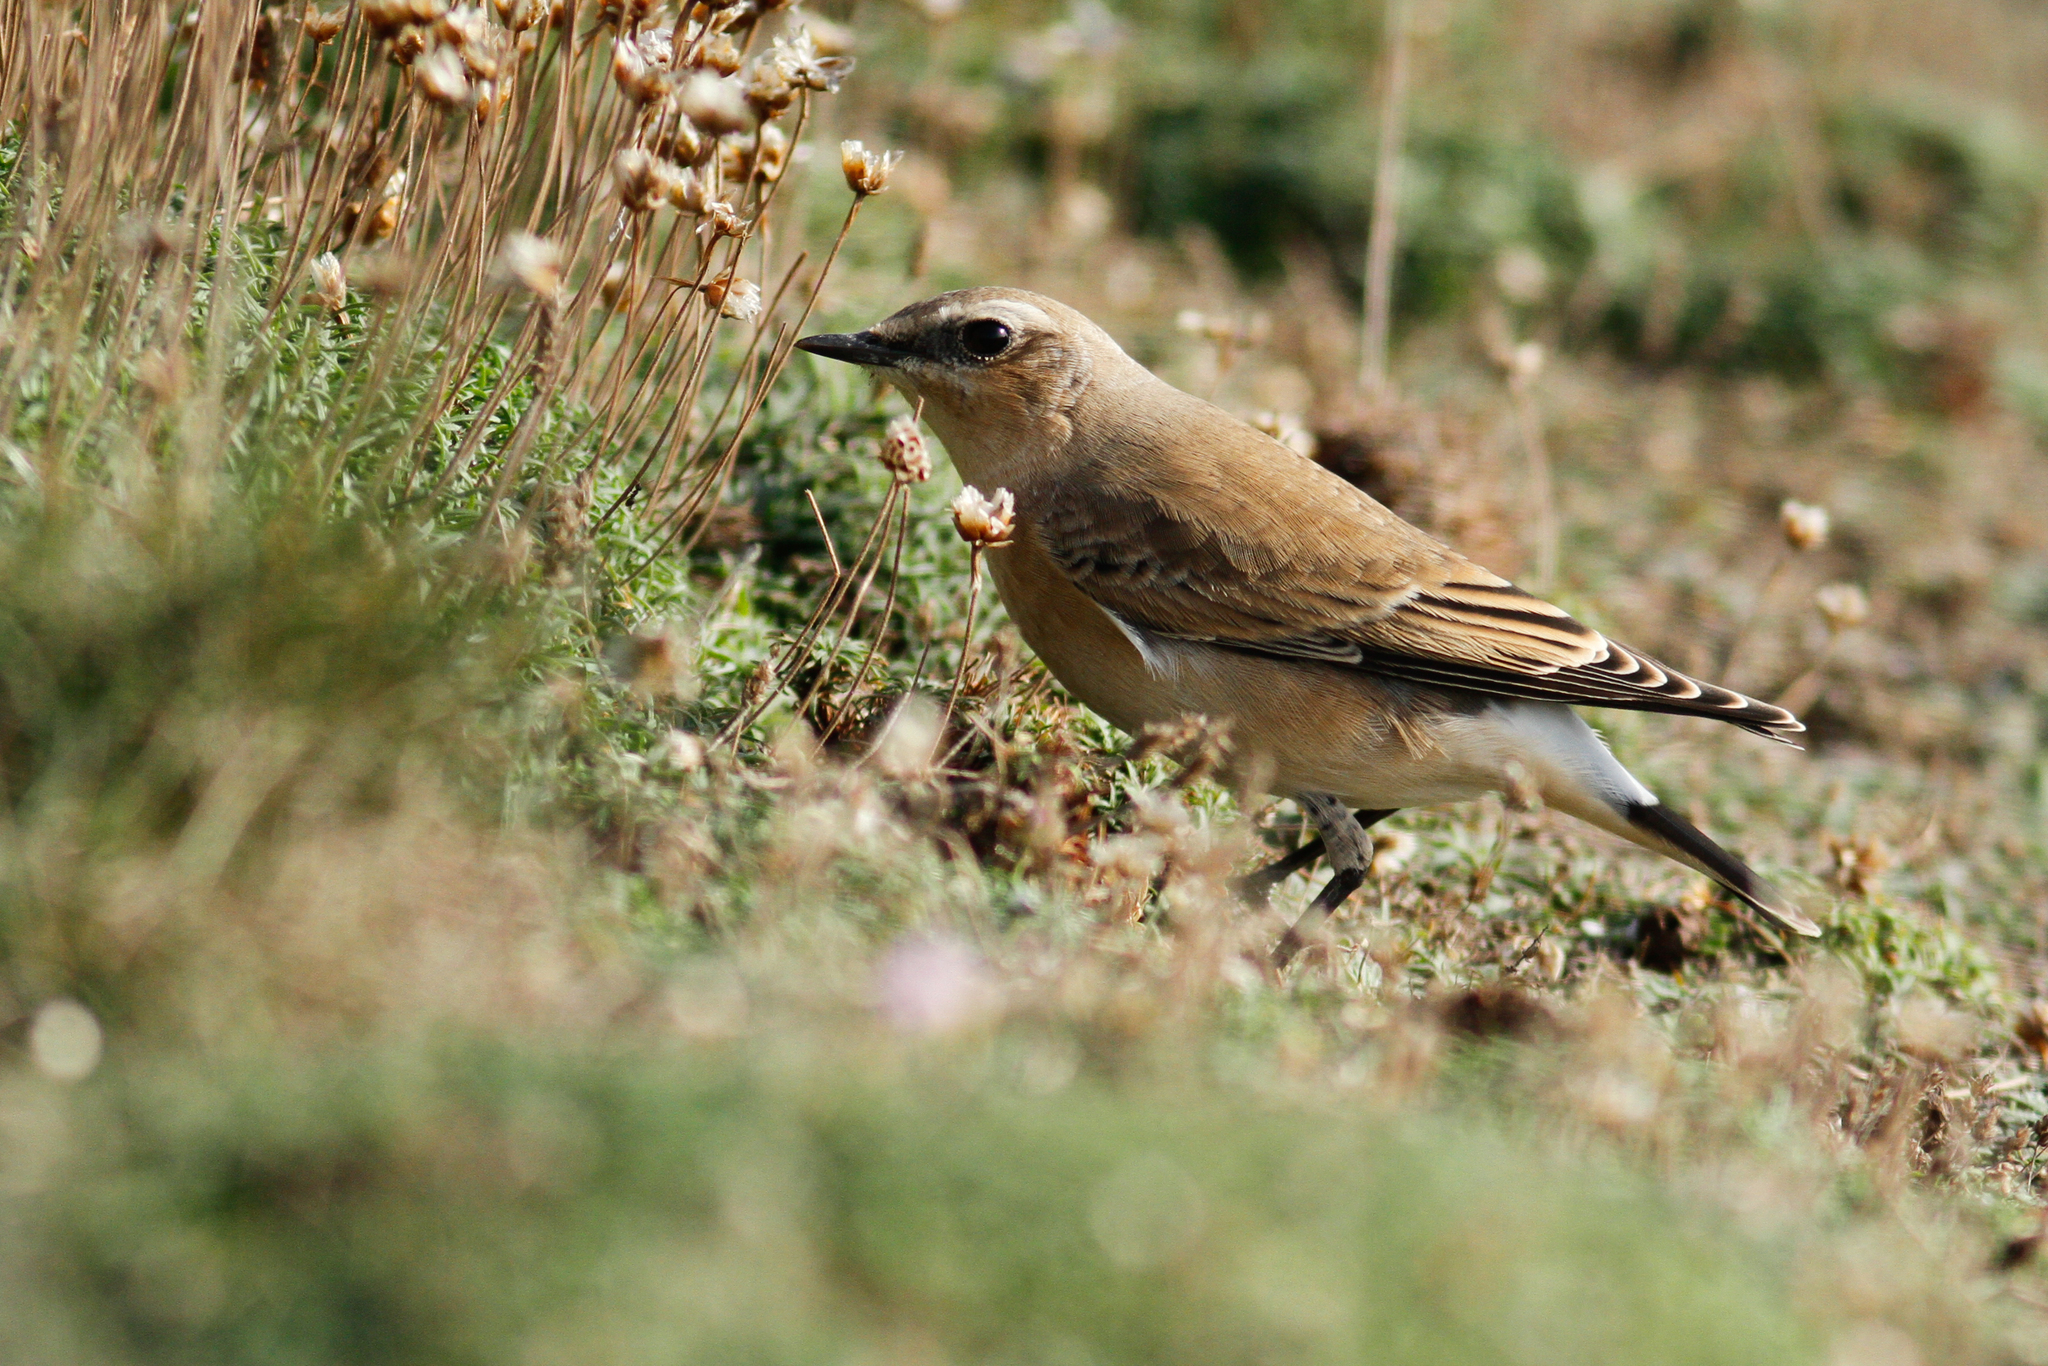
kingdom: Animalia
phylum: Chordata
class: Aves
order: Passeriformes
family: Muscicapidae
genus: Oenanthe
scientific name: Oenanthe oenanthe
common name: Northern wheatear
